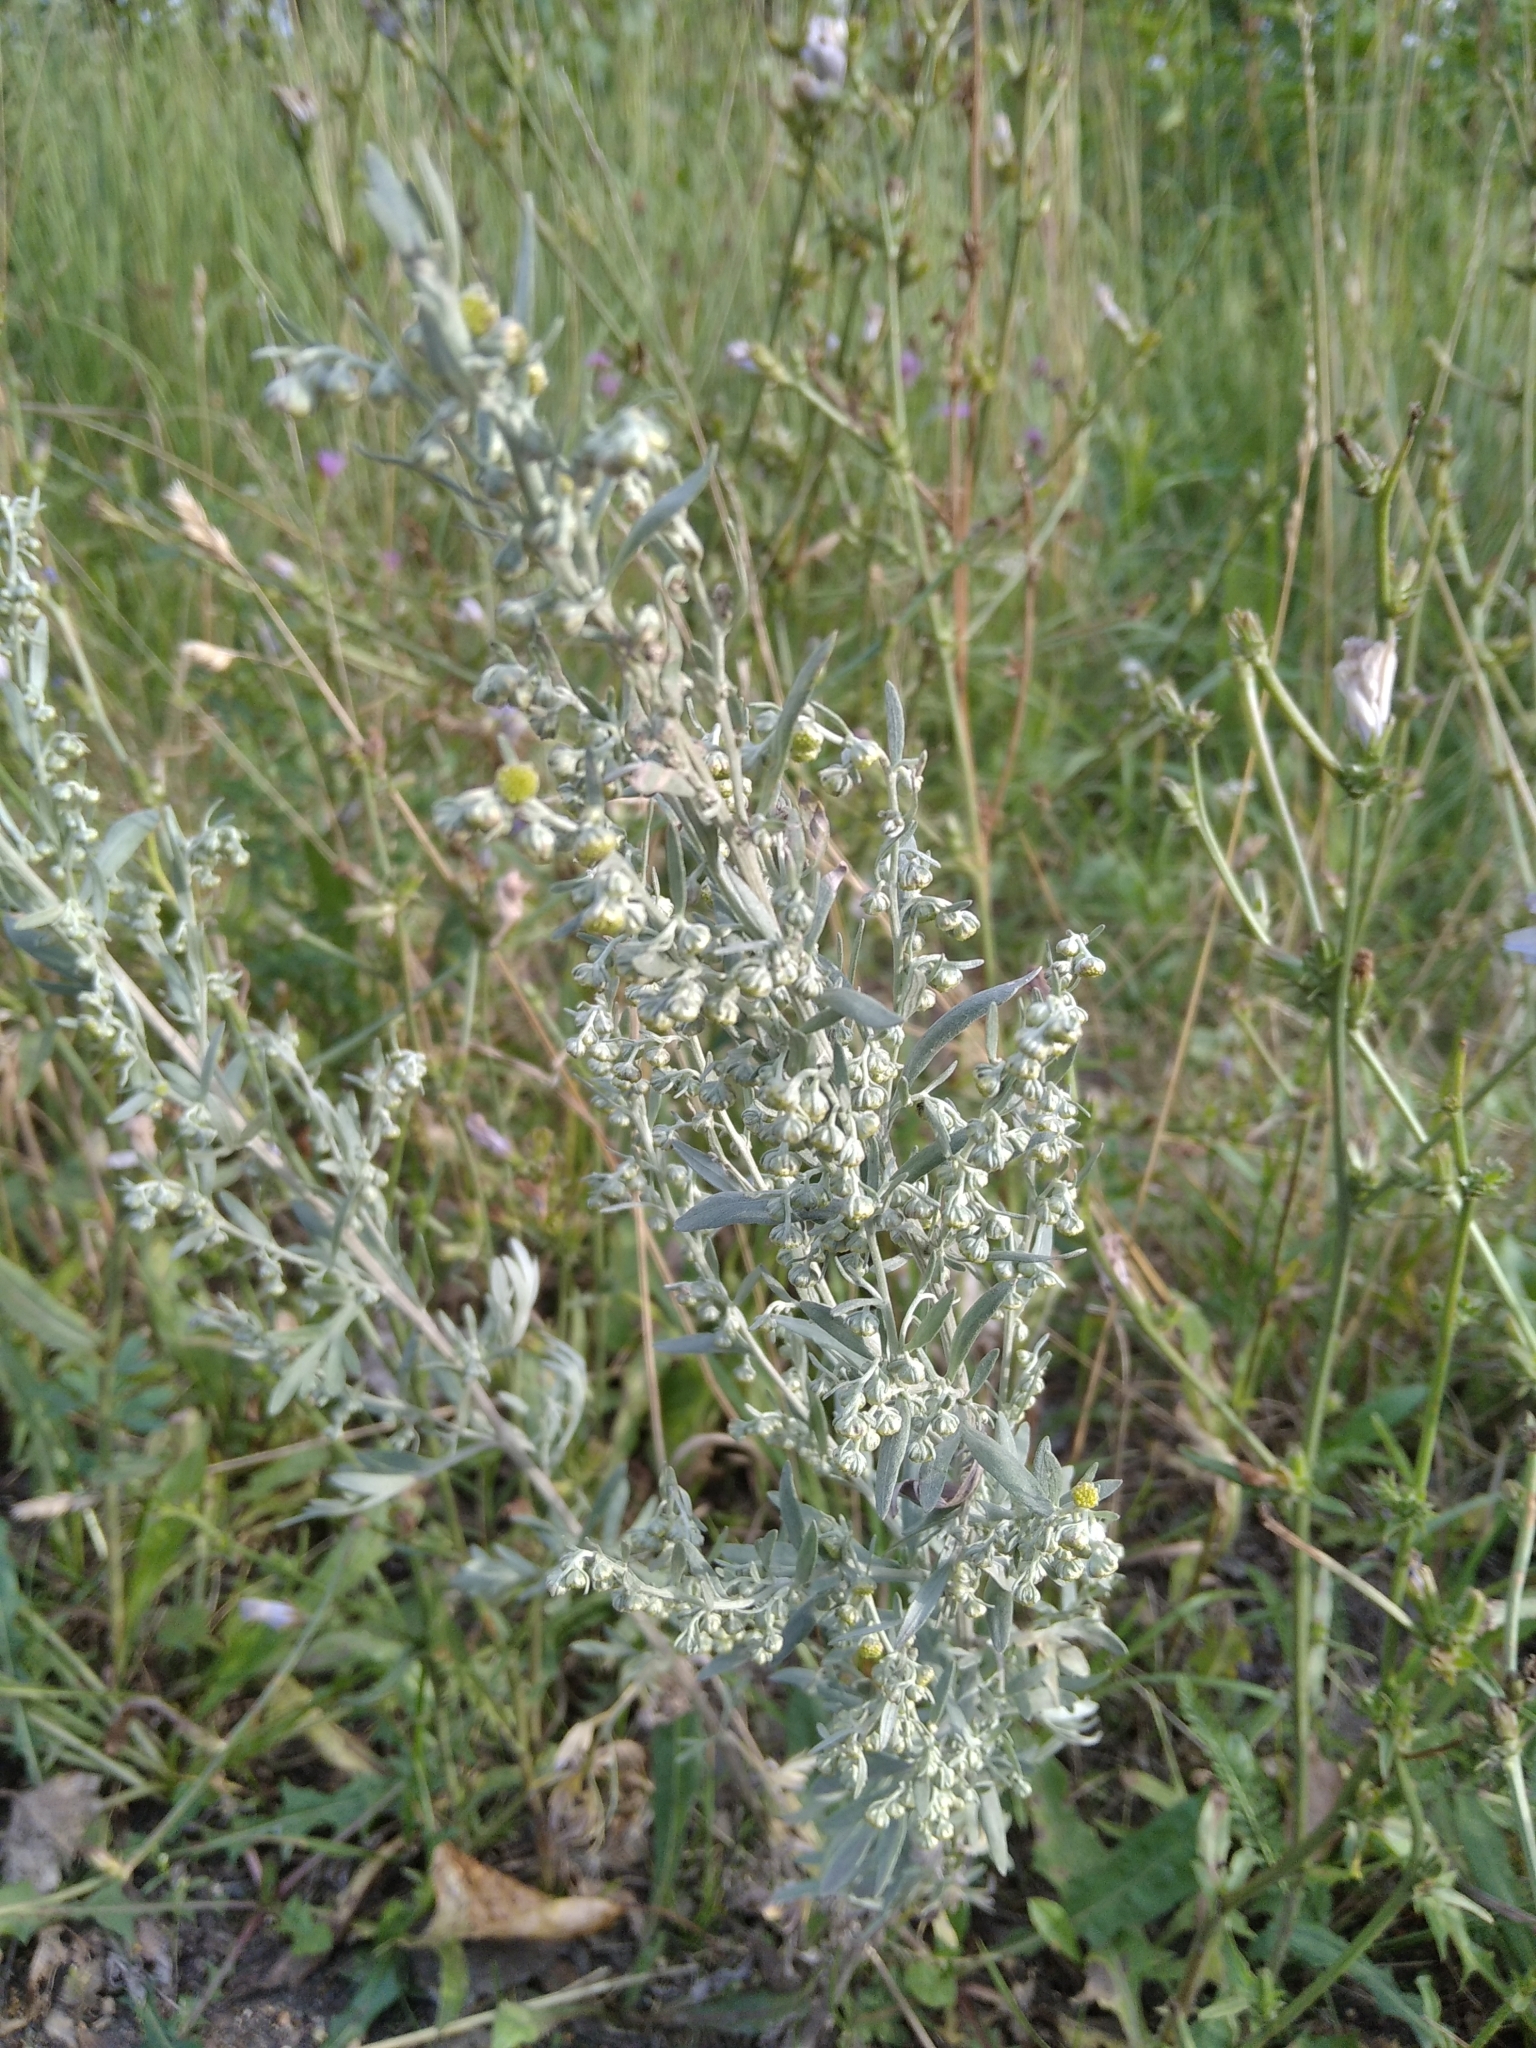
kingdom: Plantae
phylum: Tracheophyta
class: Magnoliopsida
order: Asterales
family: Asteraceae
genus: Artemisia
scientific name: Artemisia absinthium
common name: Wormwood
